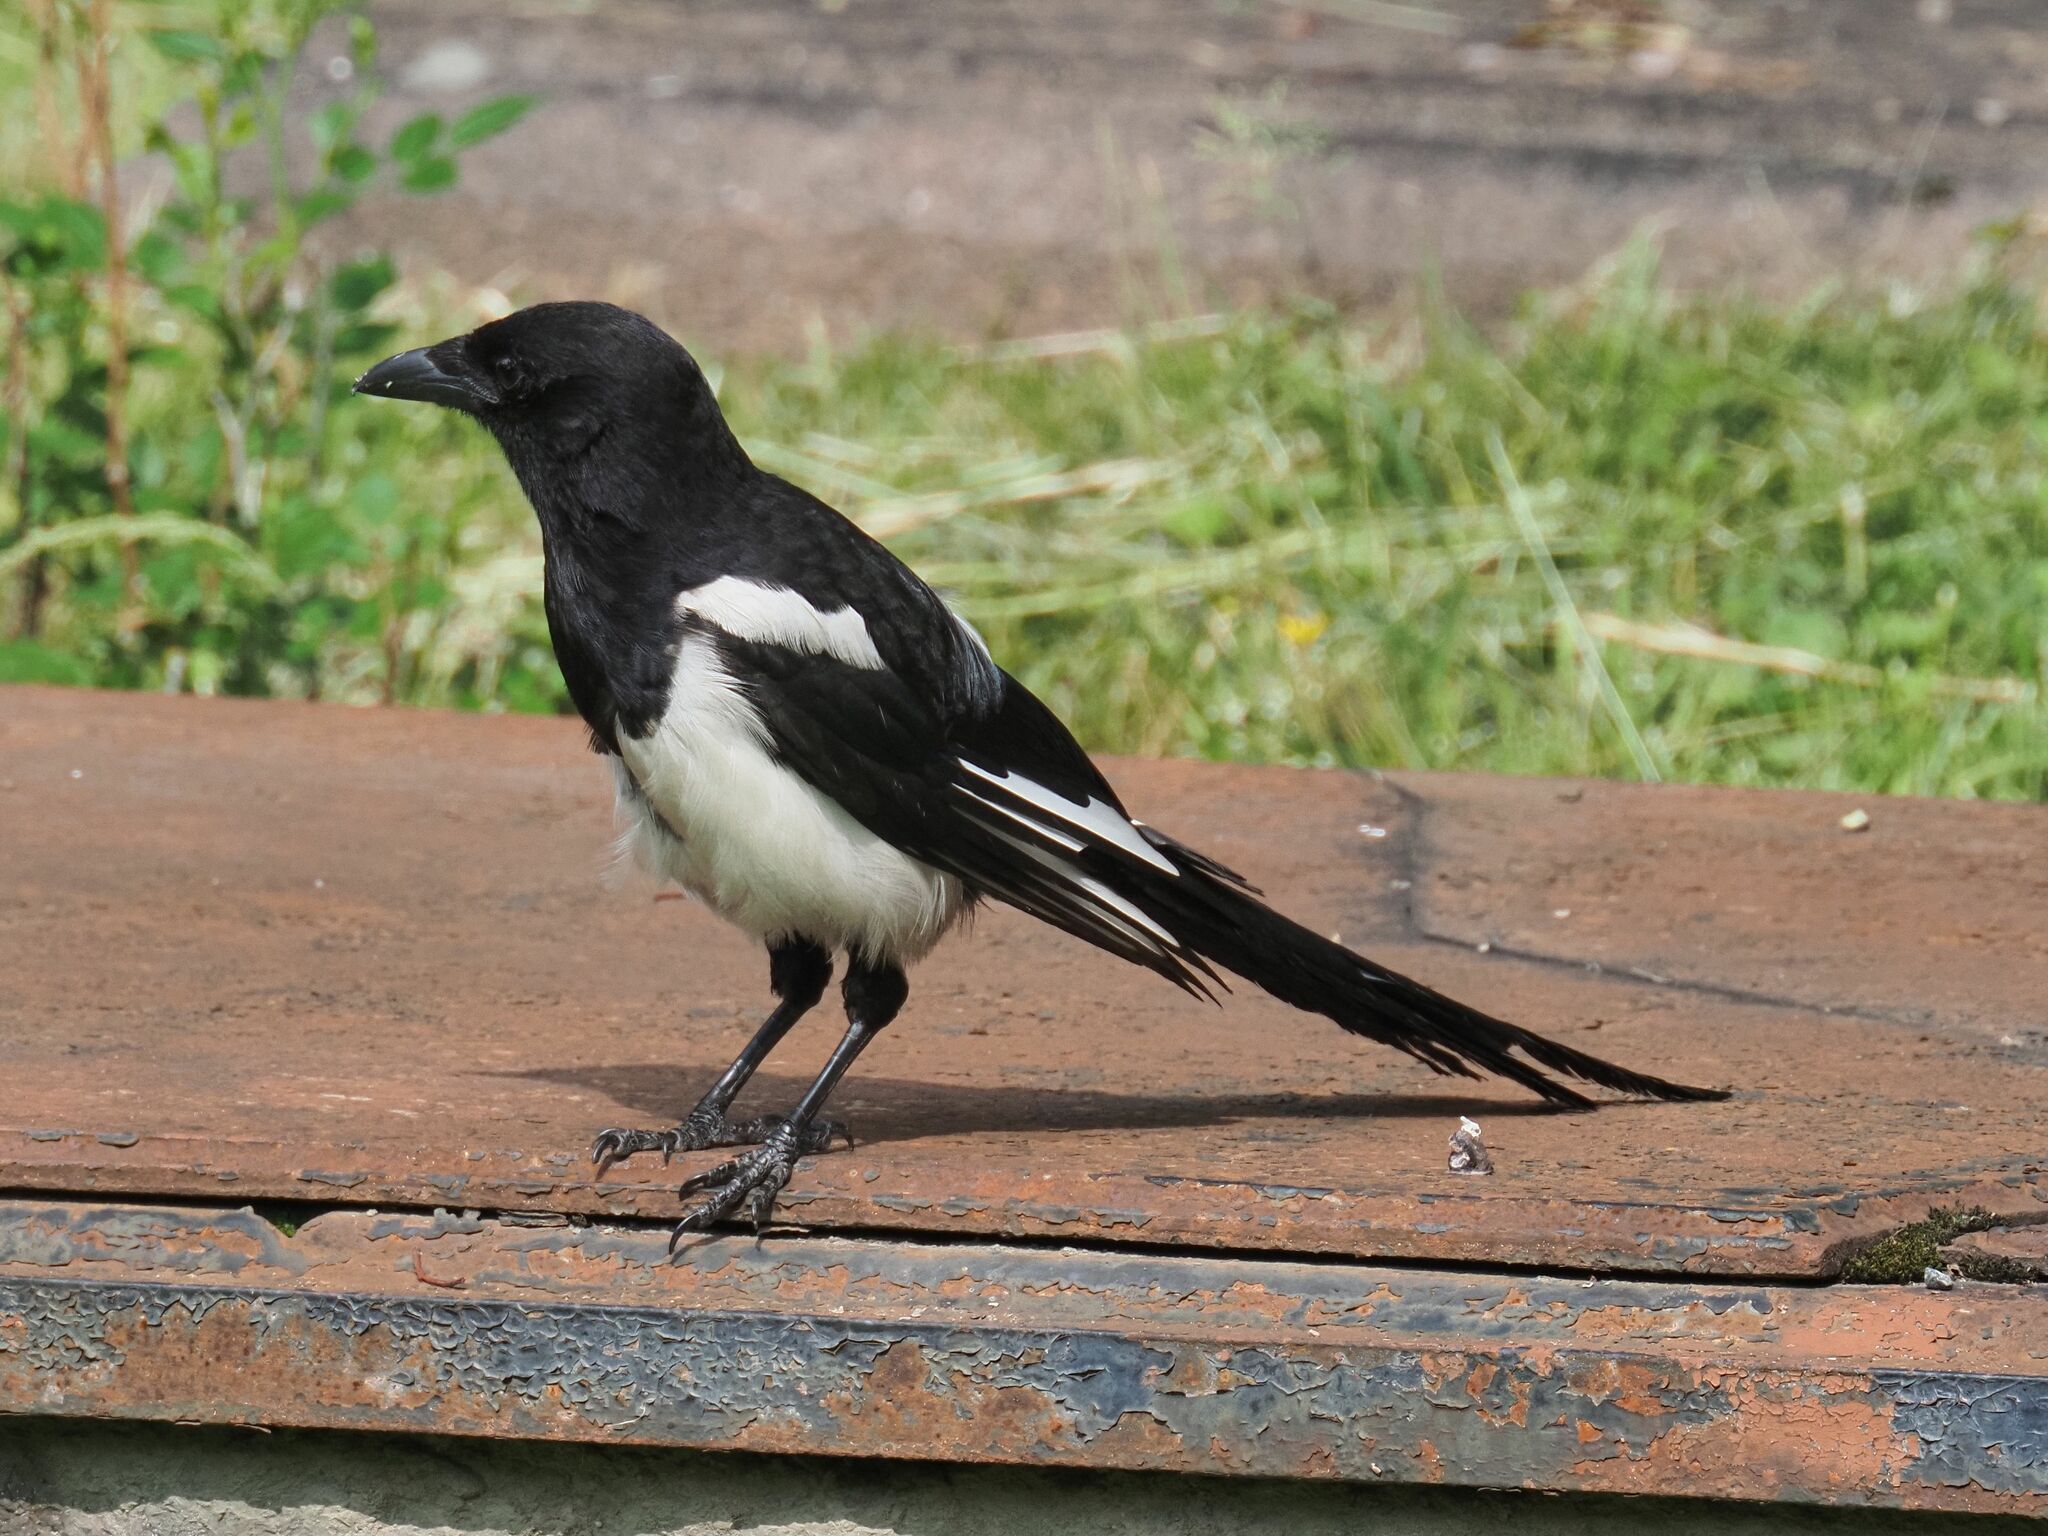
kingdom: Animalia
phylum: Chordata
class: Aves
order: Passeriformes
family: Corvidae
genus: Pica
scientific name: Pica pica
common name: Eurasian magpie
